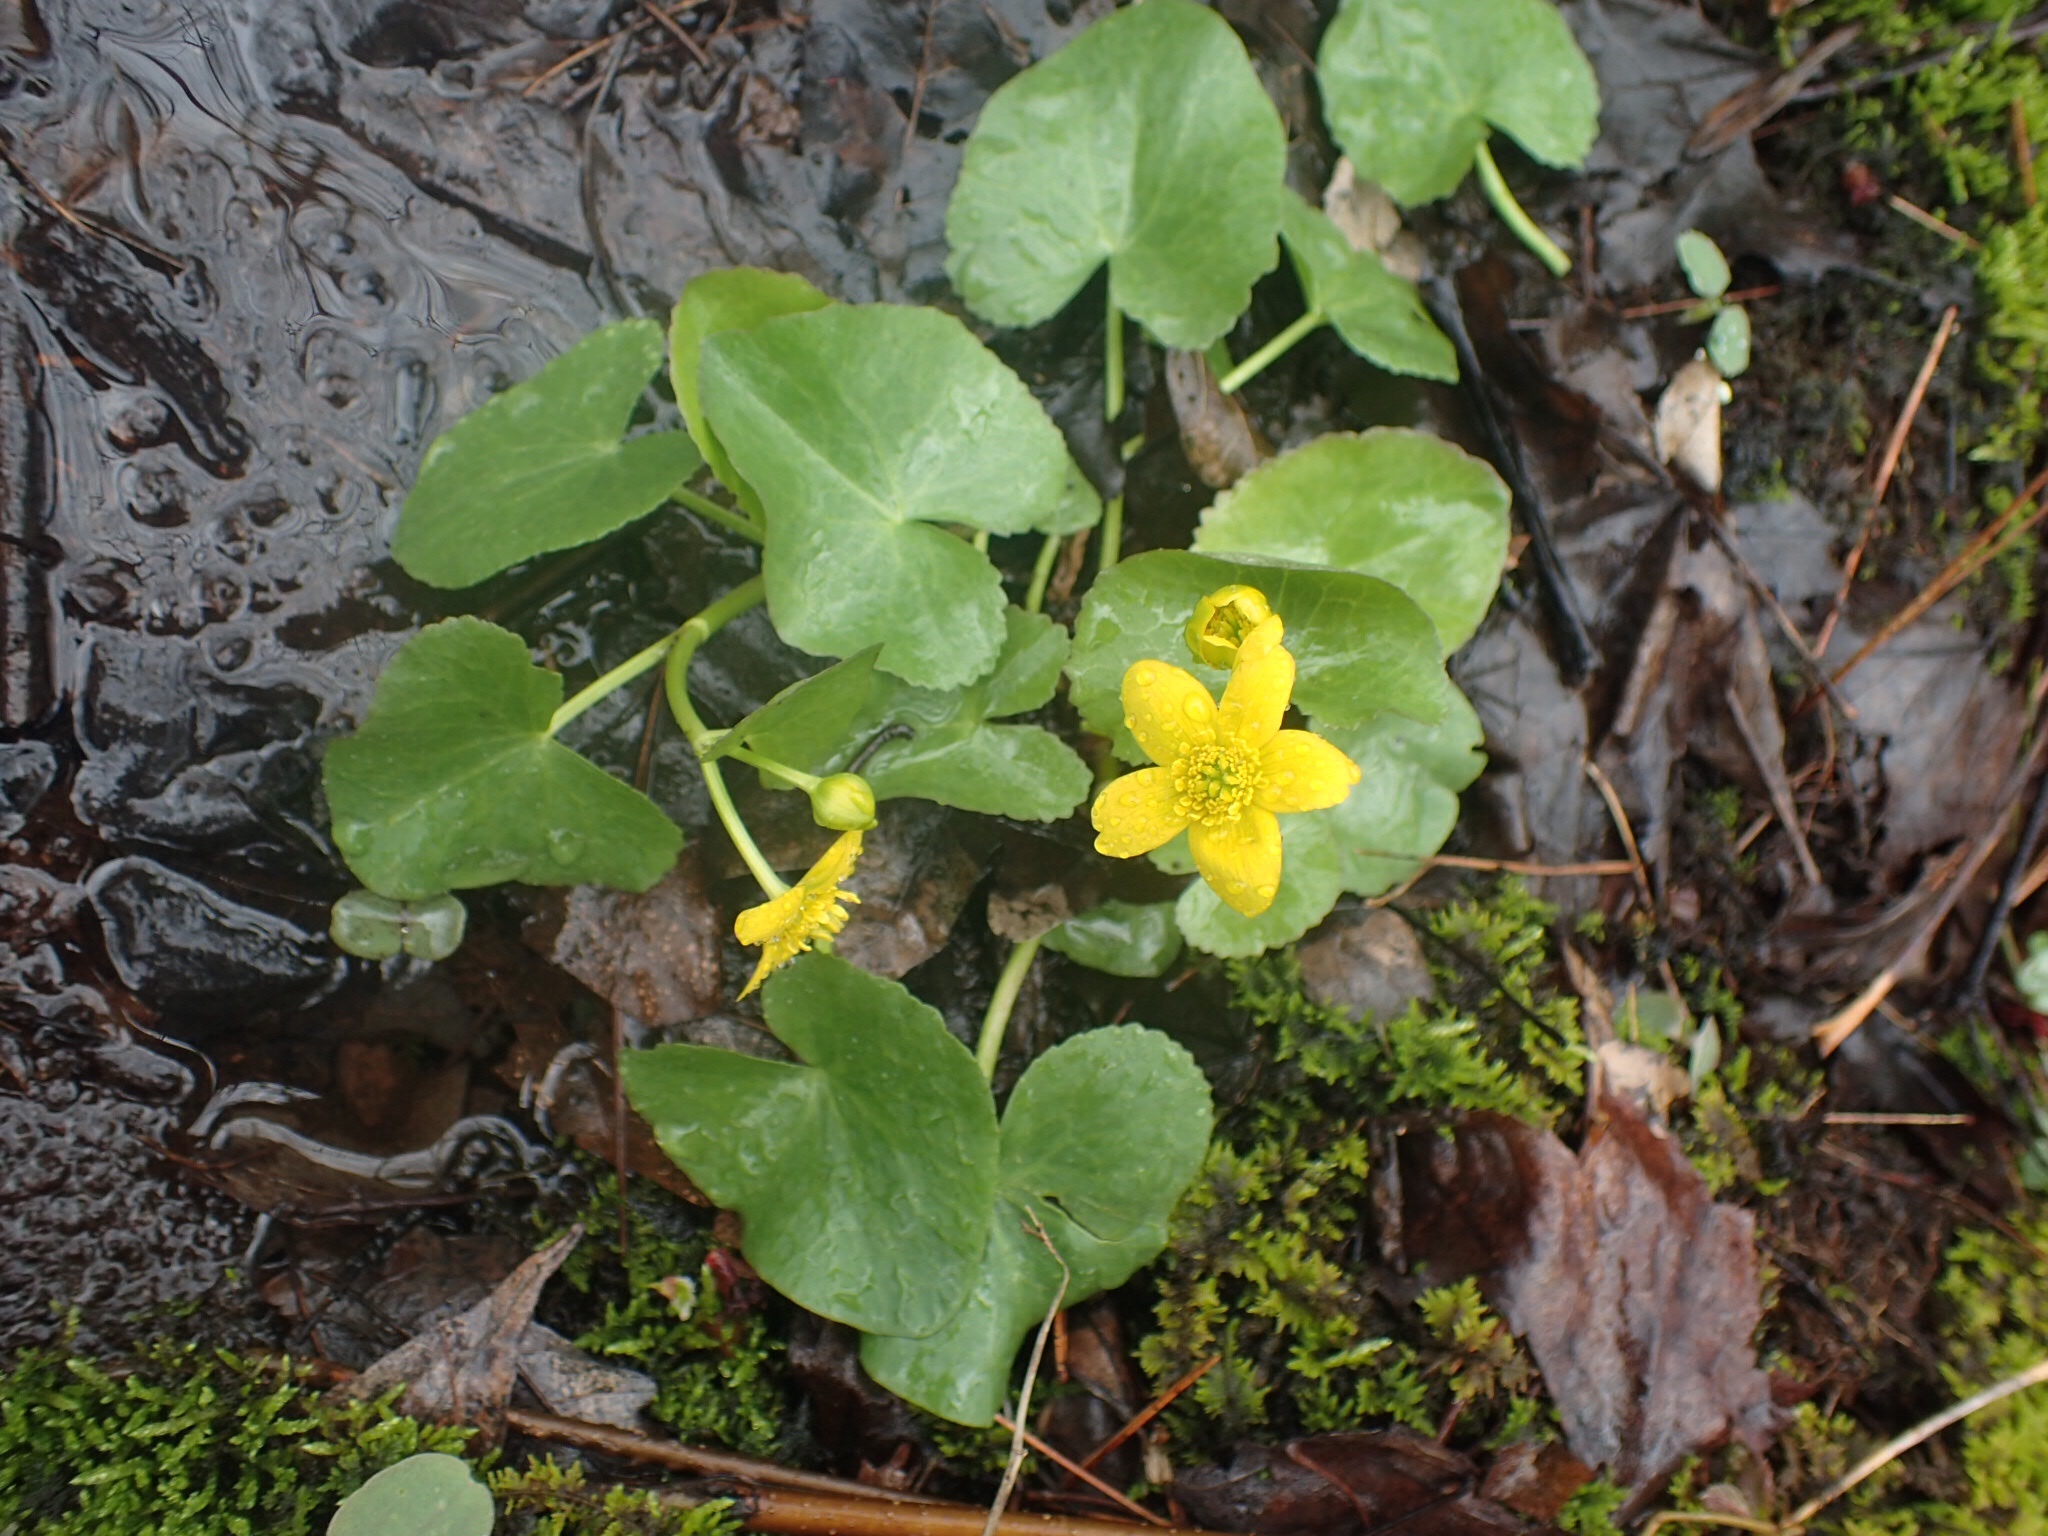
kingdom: Plantae
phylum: Tracheophyta
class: Magnoliopsida
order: Ranunculales
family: Ranunculaceae
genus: Caltha
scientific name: Caltha palustris
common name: Marsh marigold
